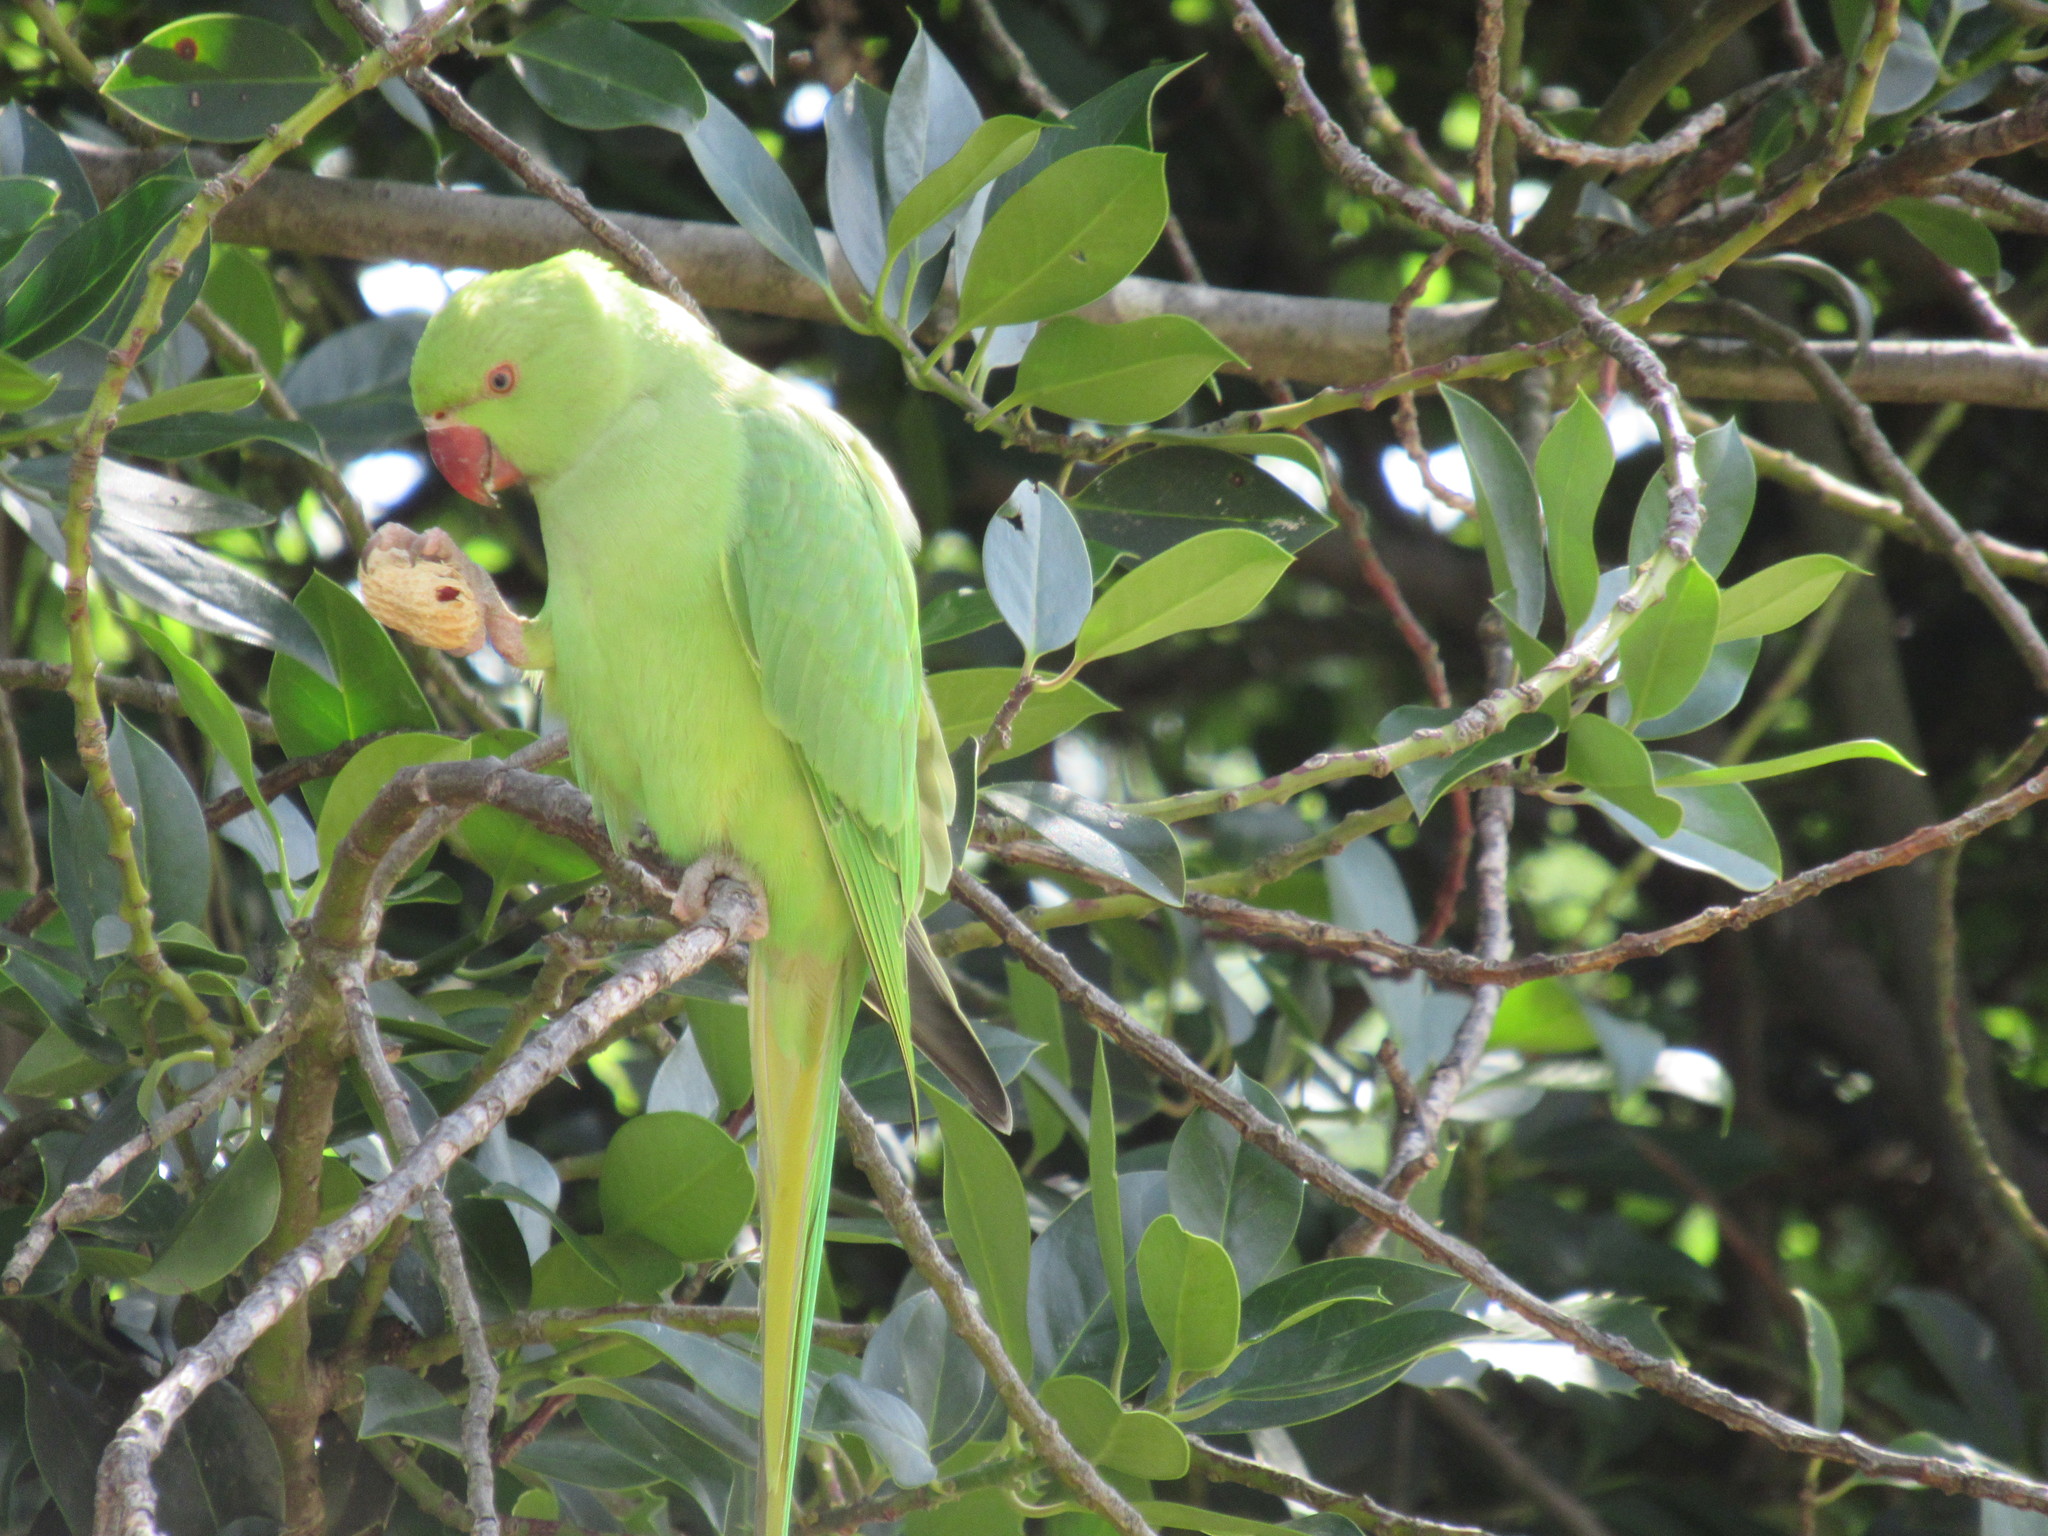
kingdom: Animalia
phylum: Chordata
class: Aves
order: Psittaciformes
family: Psittacidae
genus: Psittacula
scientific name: Psittacula krameri
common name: Rose-ringed parakeet
